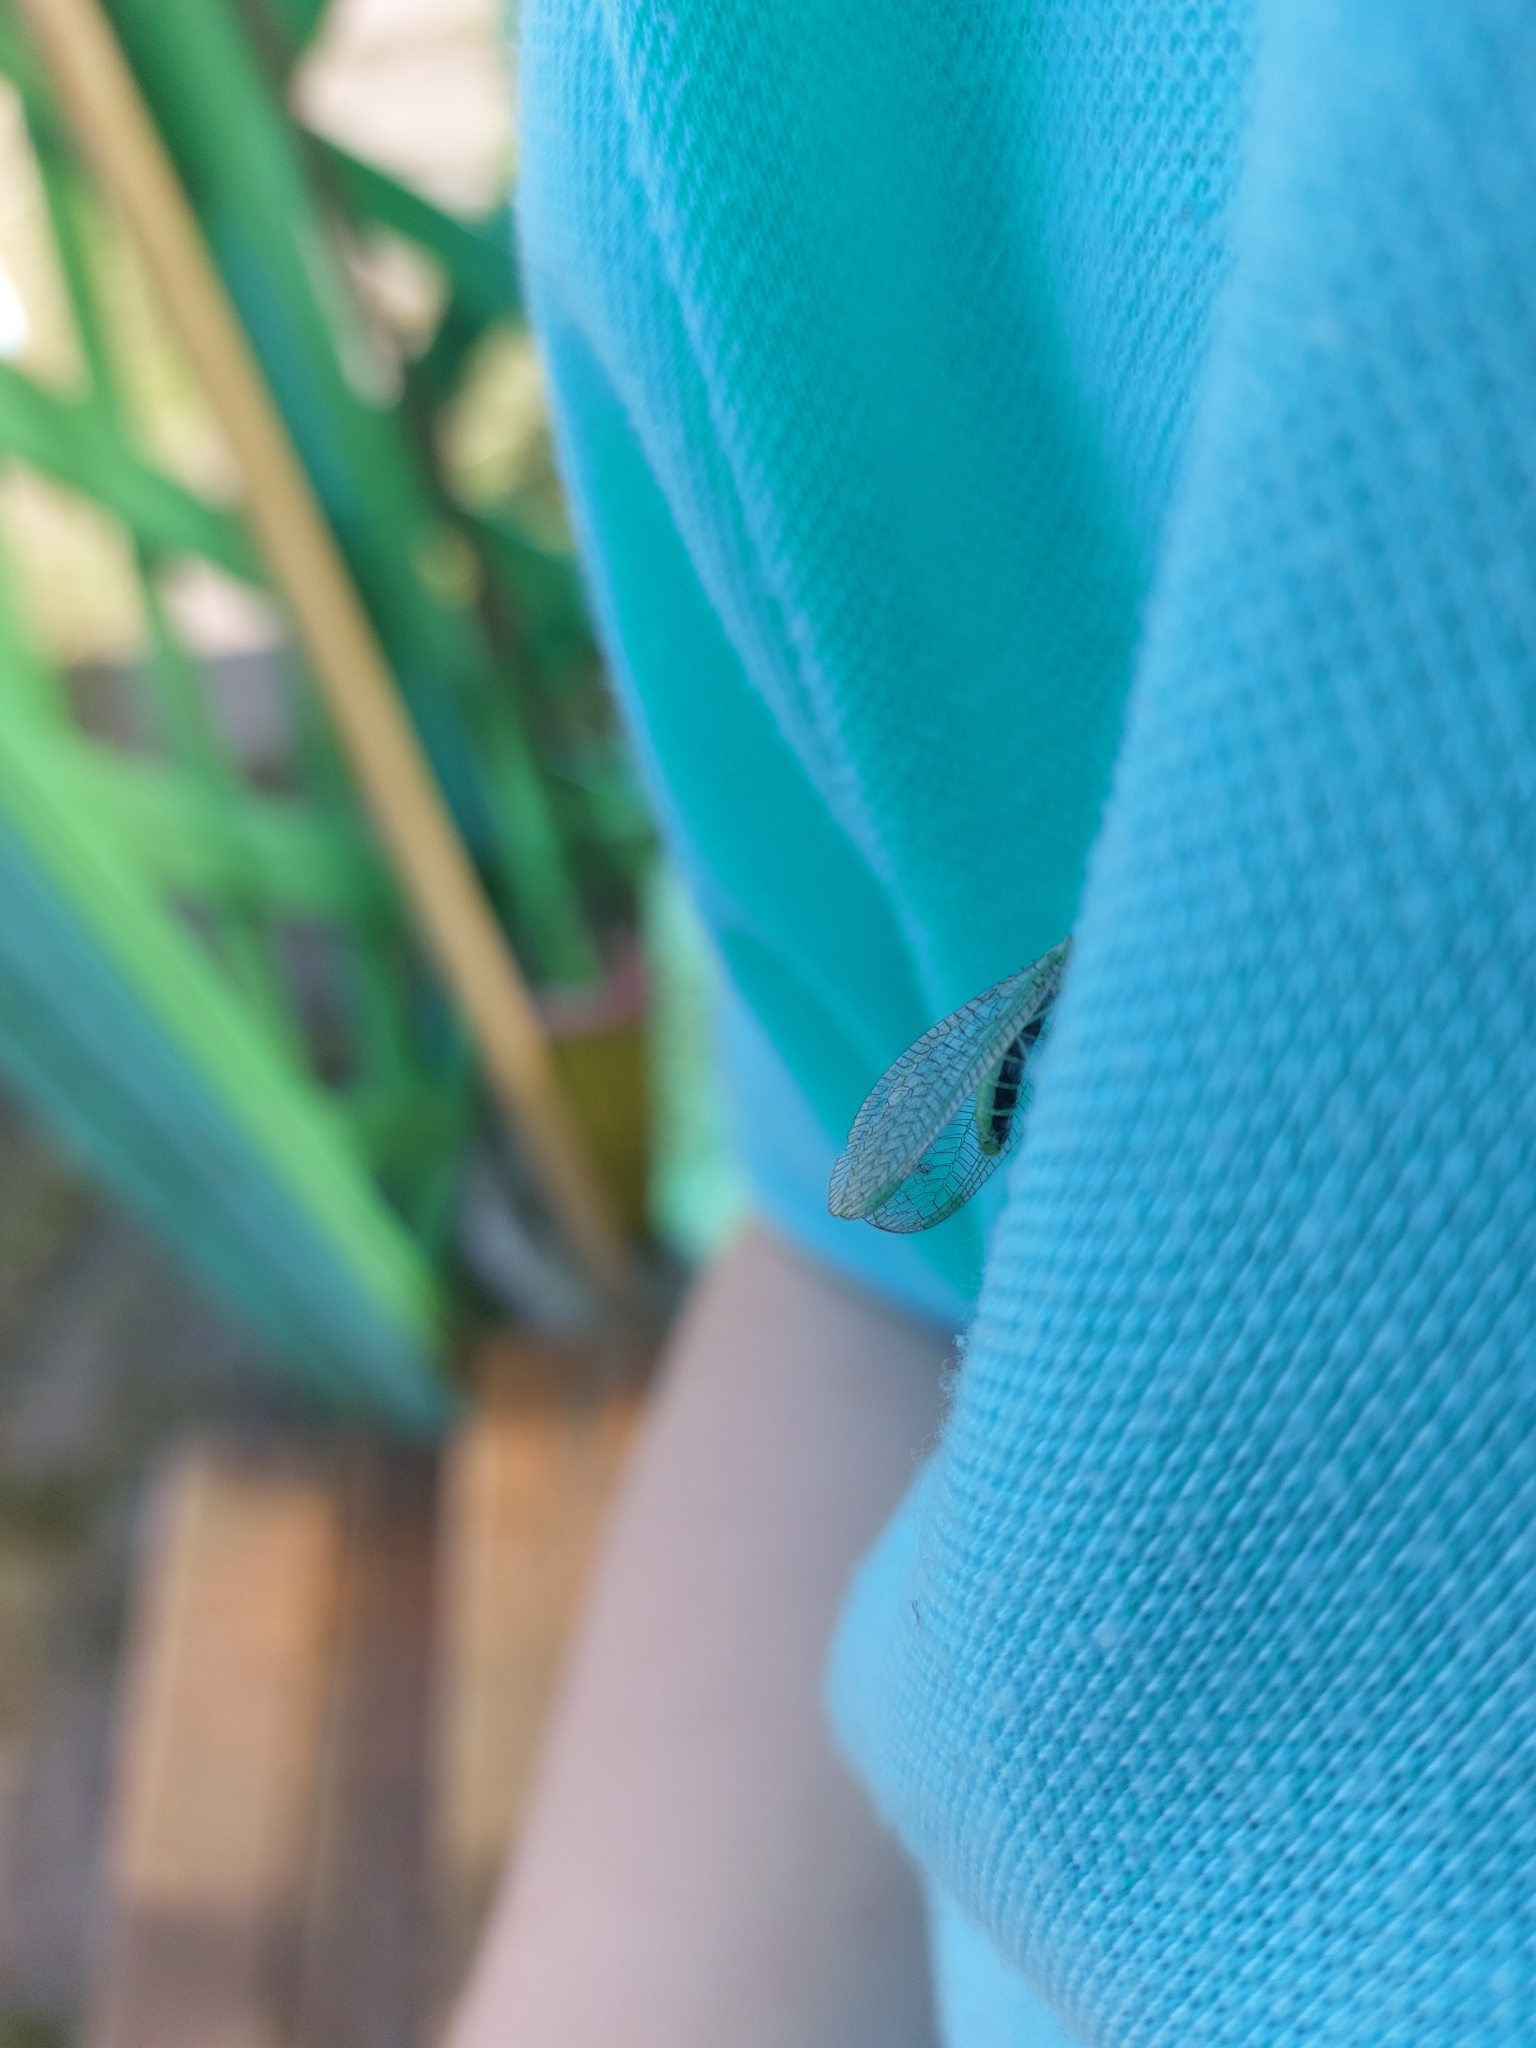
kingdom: Animalia
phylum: Arthropoda
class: Insecta
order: Neuroptera
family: Chrysopidae
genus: Chrysopa
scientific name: Chrysopa perla
